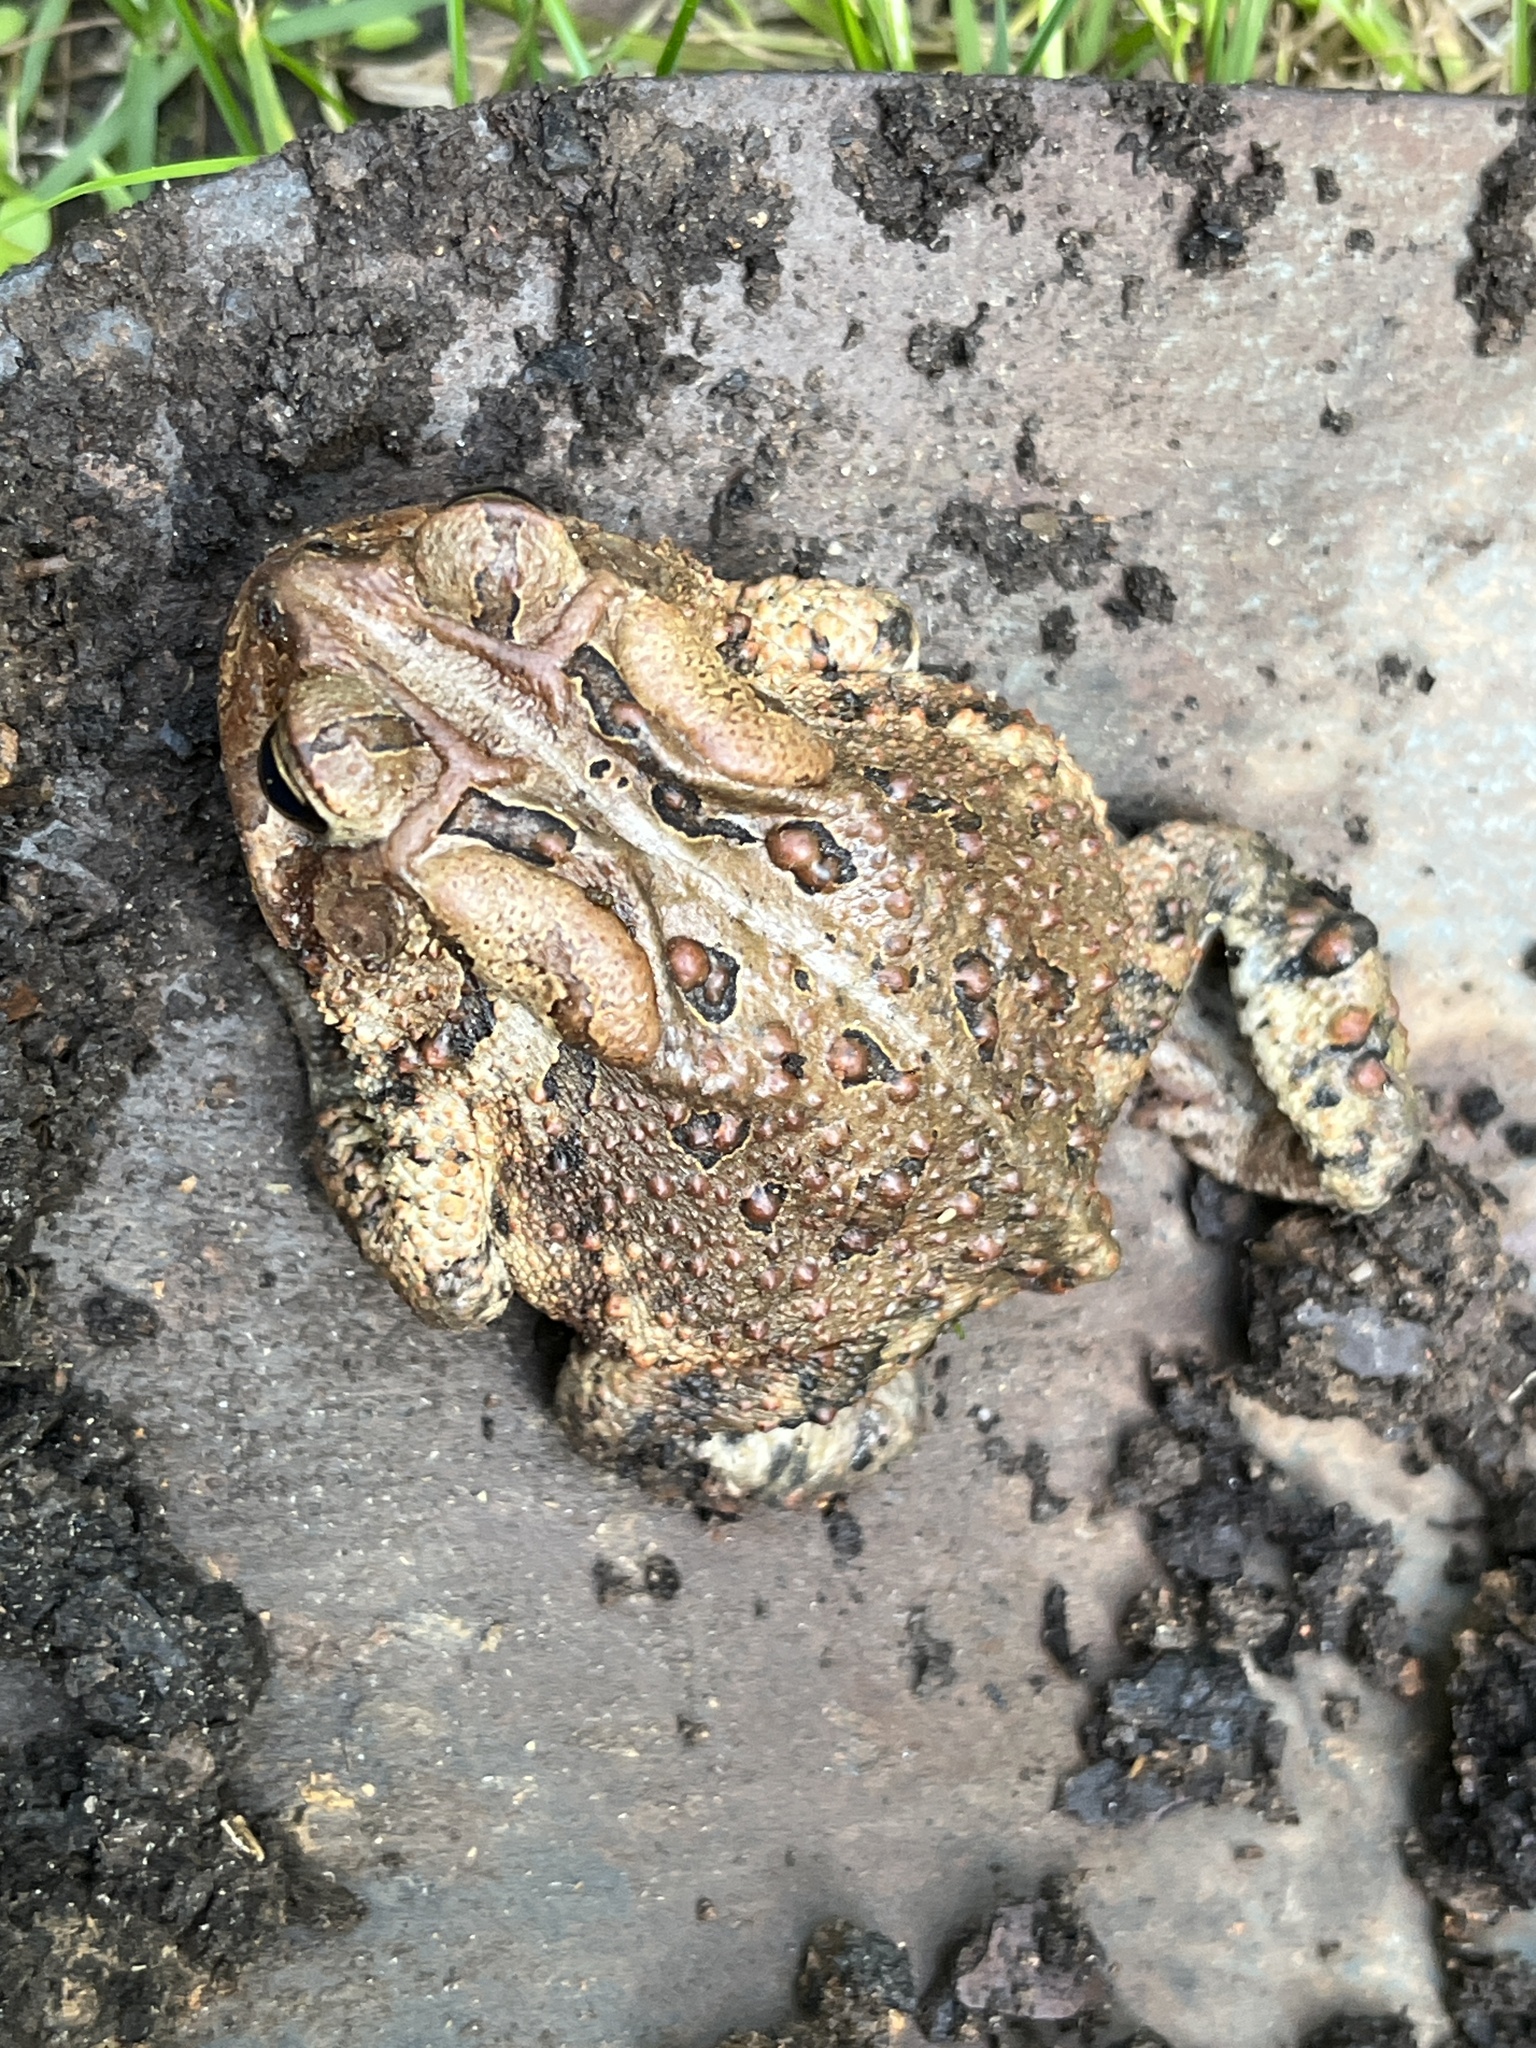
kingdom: Animalia
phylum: Chordata
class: Amphibia
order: Anura
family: Bufonidae
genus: Anaxyrus
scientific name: Anaxyrus americanus
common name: American toad
